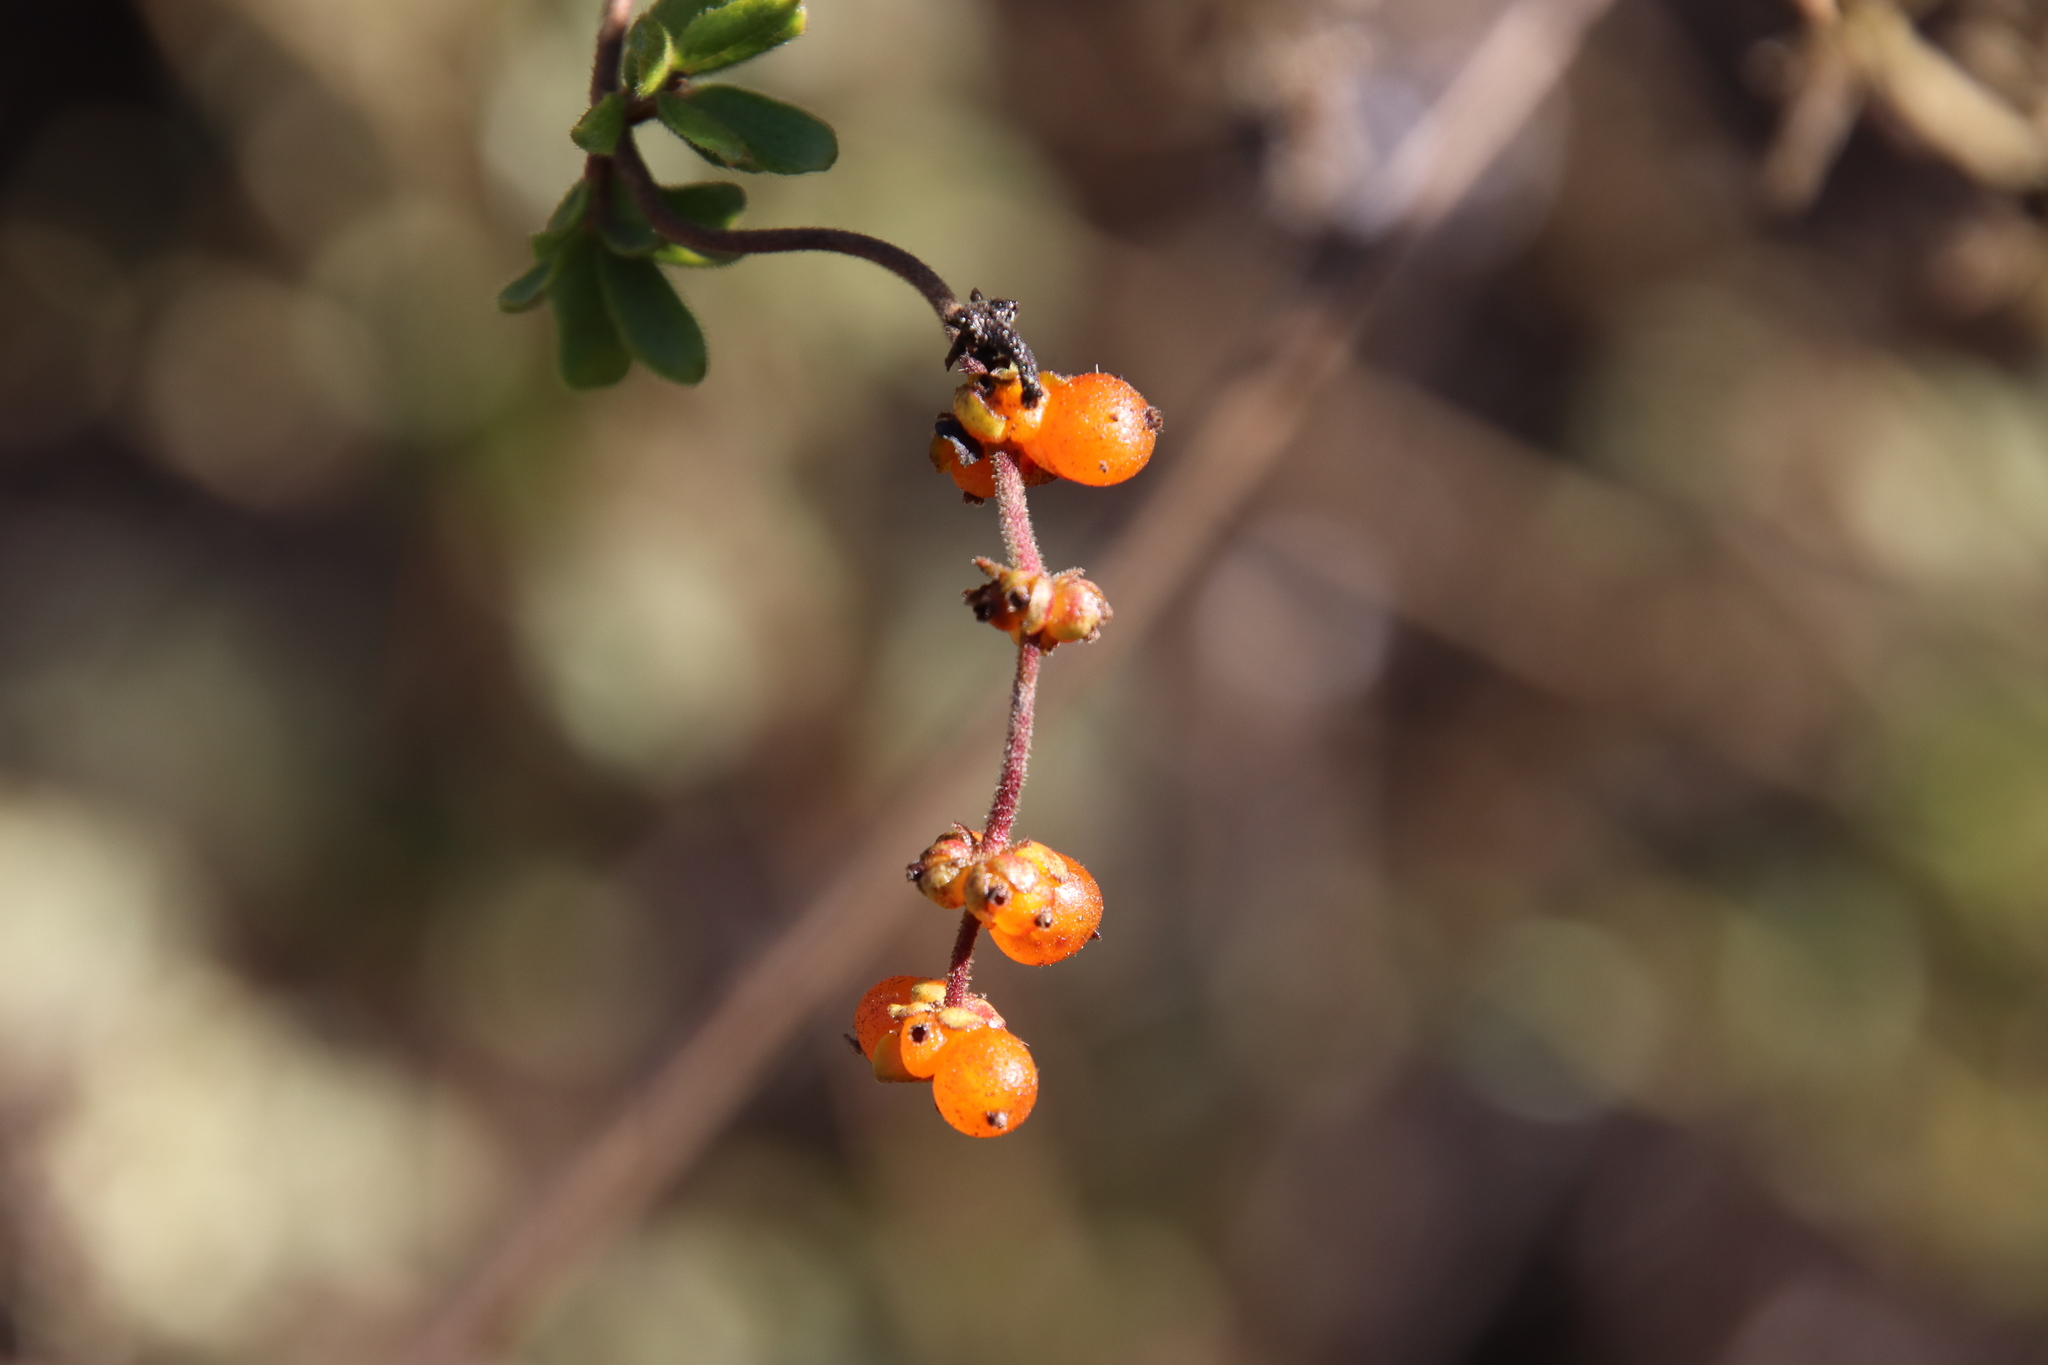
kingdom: Plantae
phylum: Tracheophyta
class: Magnoliopsida
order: Dipsacales
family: Caprifoliaceae
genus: Lonicera
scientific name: Lonicera subspicata
